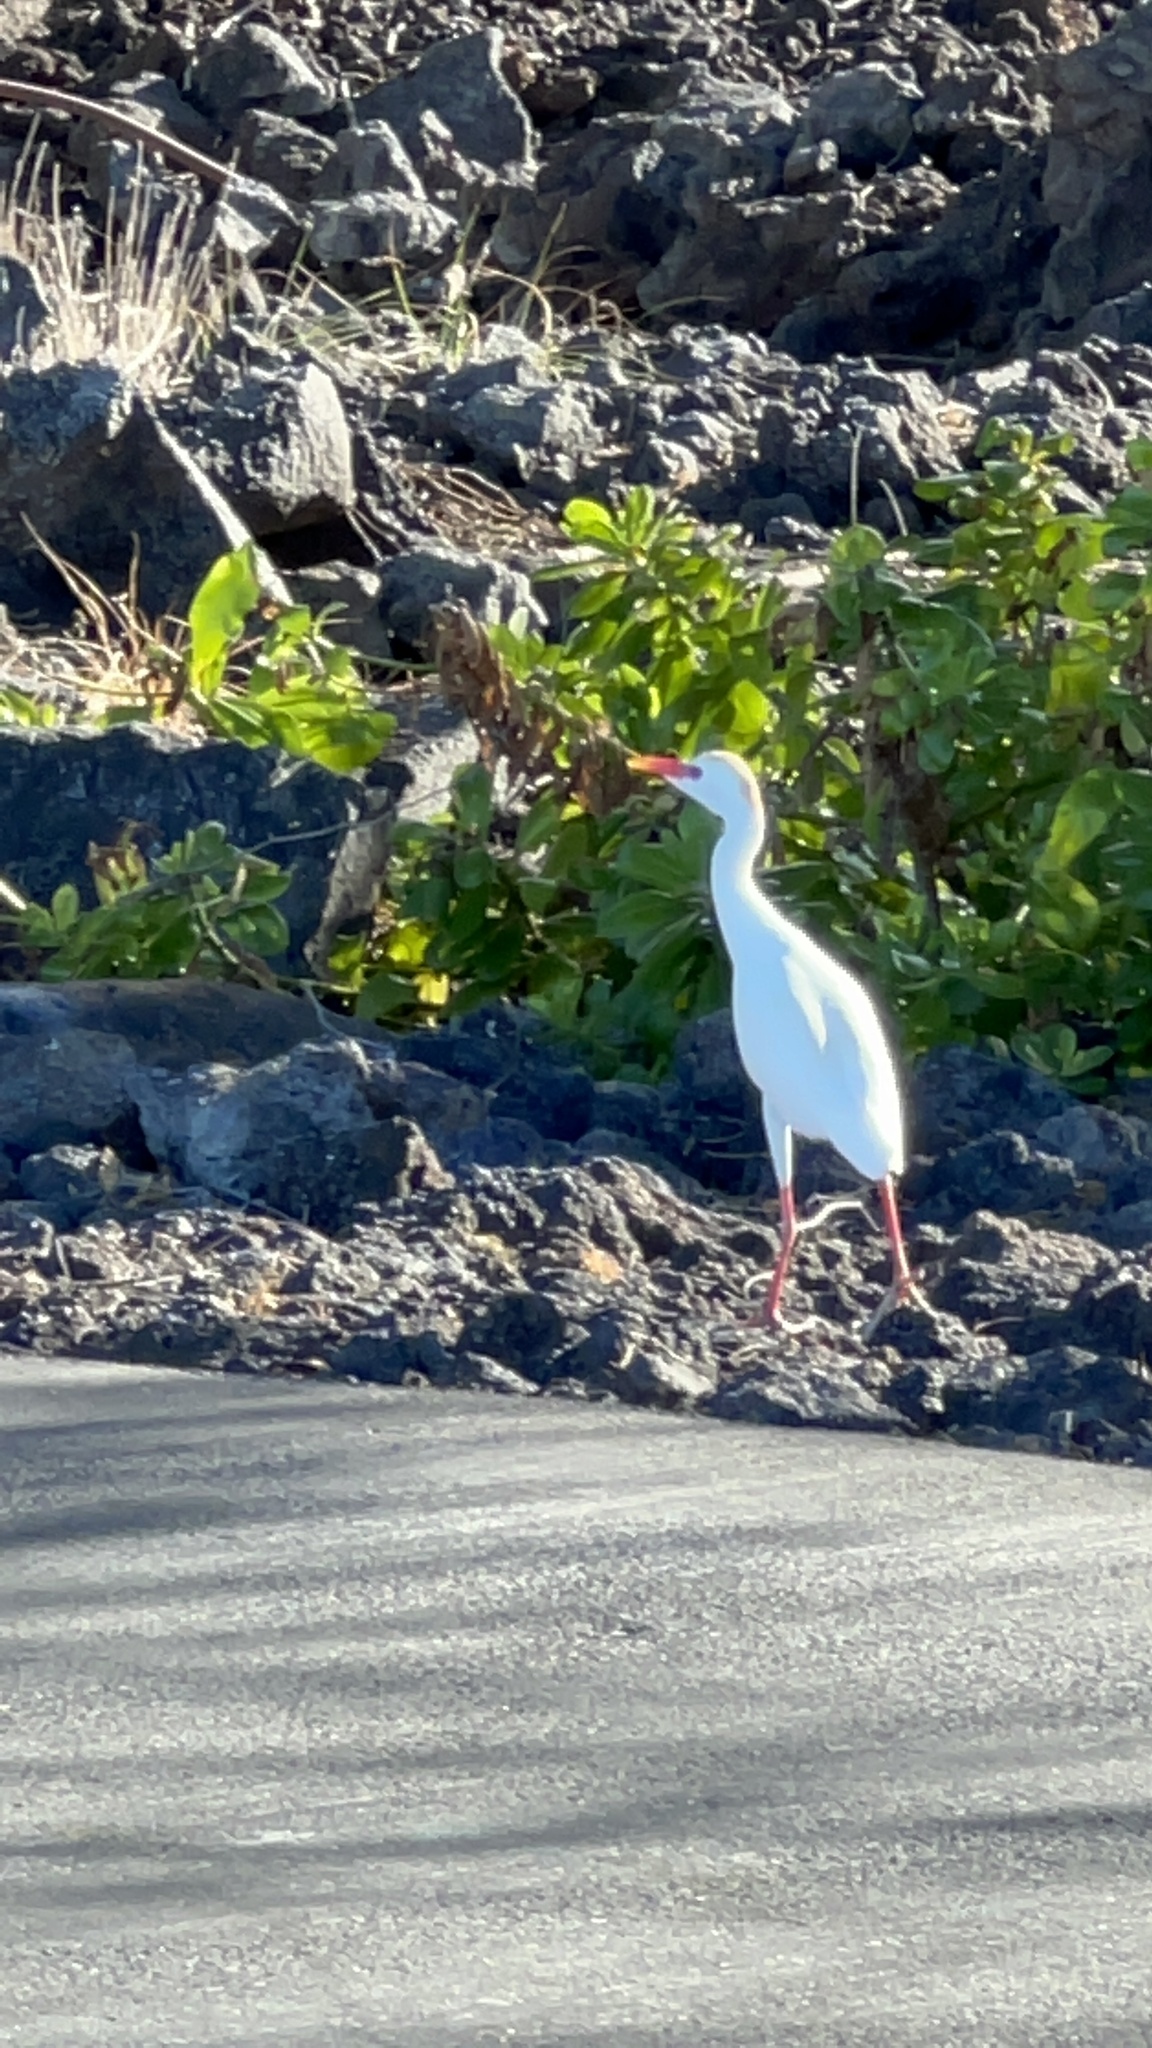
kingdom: Animalia
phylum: Chordata
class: Aves
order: Pelecaniformes
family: Ardeidae
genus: Bubulcus
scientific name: Bubulcus ibis
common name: Cattle egret
